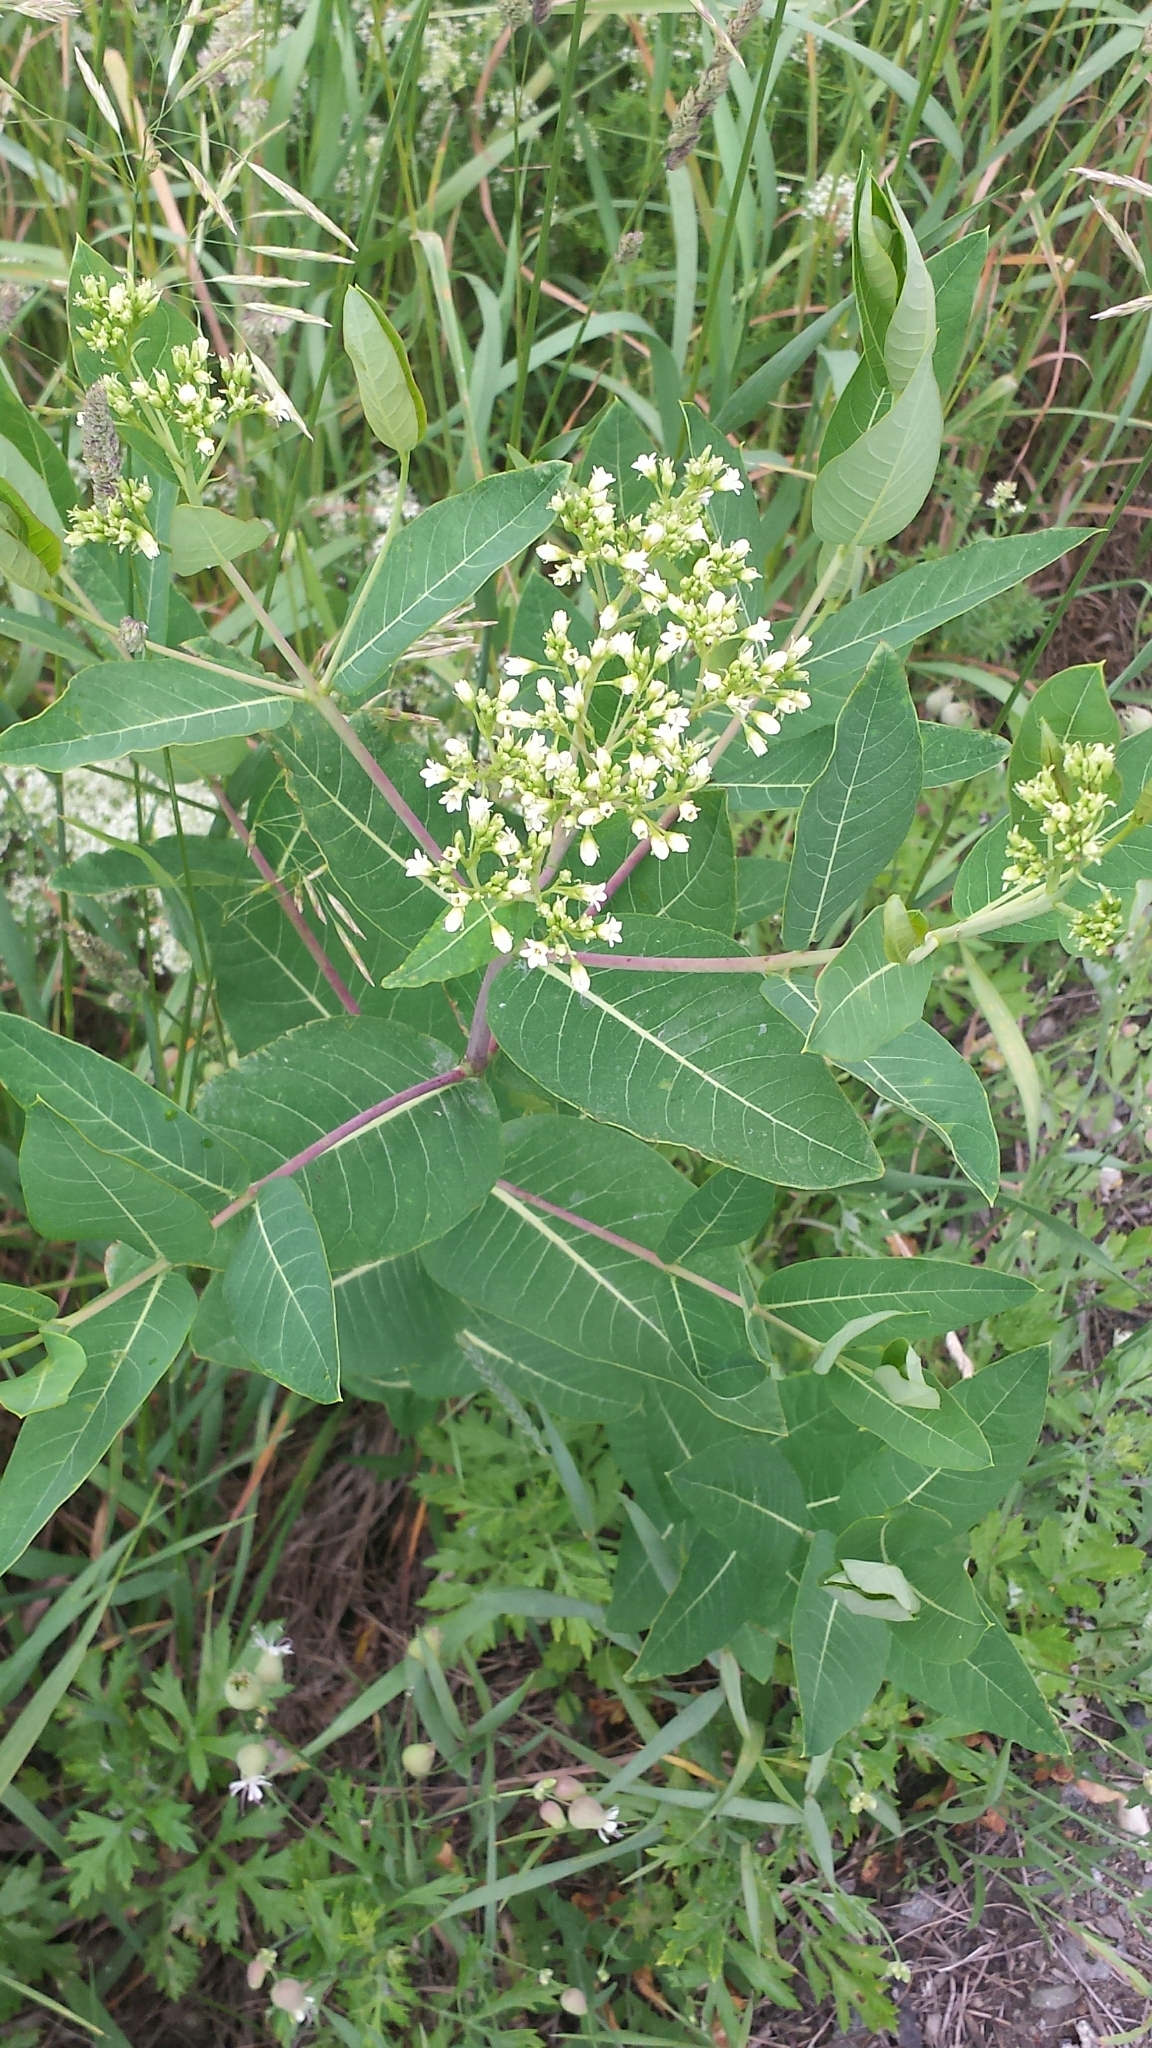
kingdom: Plantae
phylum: Tracheophyta
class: Magnoliopsida
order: Gentianales
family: Apocynaceae
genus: Apocynum
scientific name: Apocynum cannabinum
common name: Hemp dogbane
